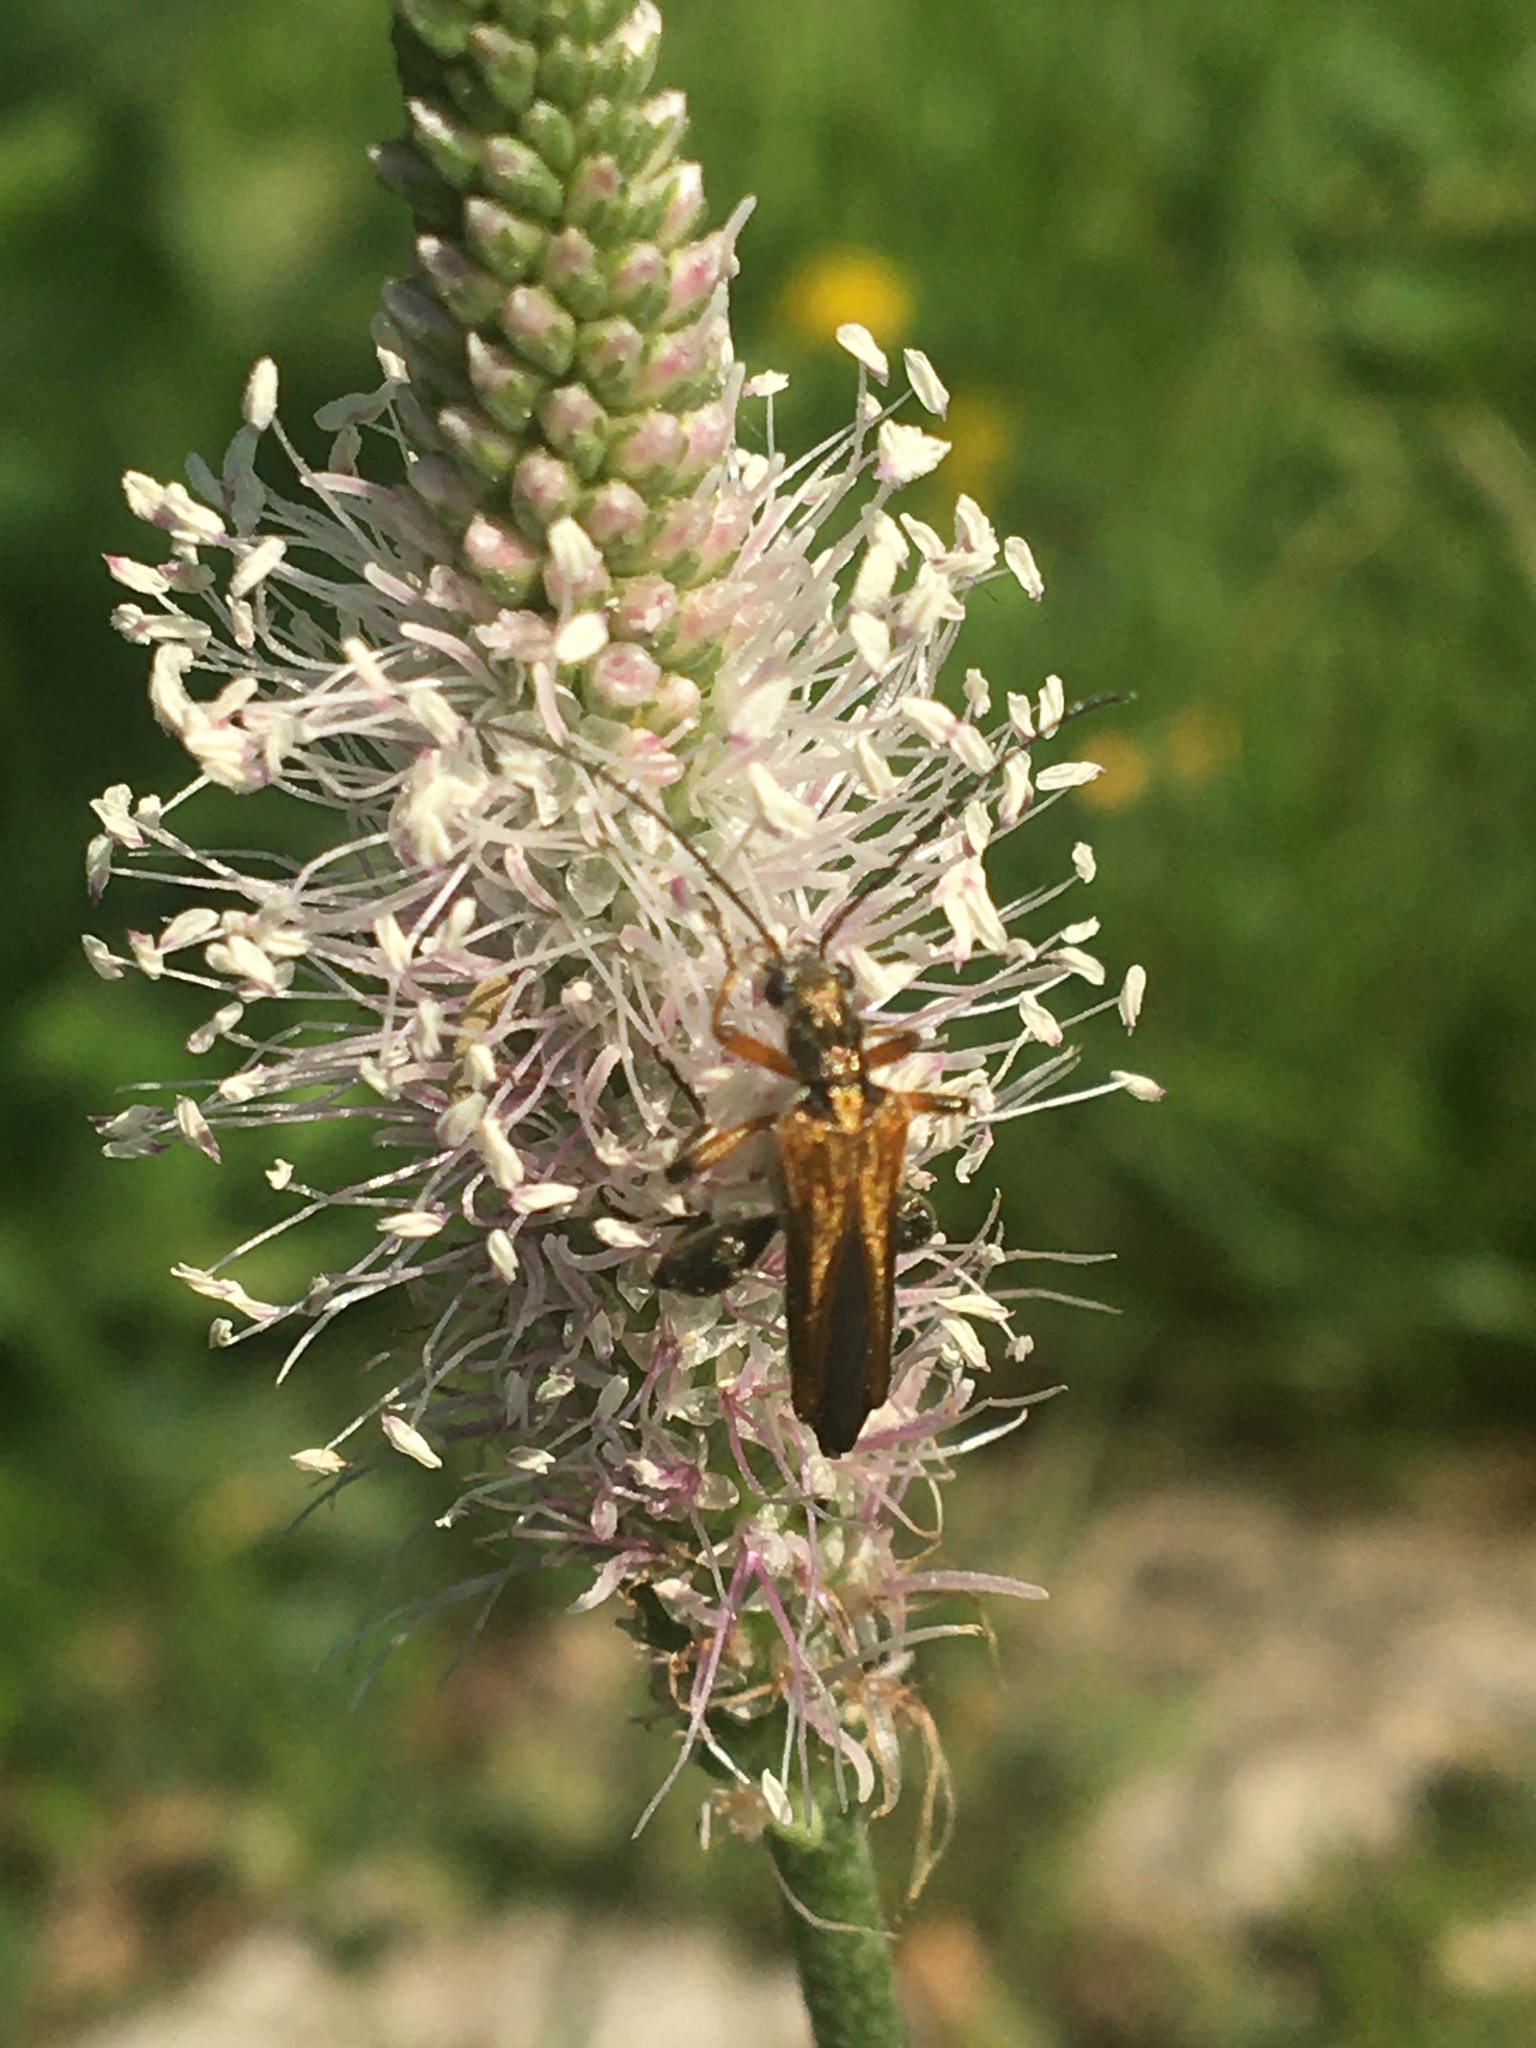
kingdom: Animalia
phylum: Arthropoda
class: Insecta
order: Coleoptera
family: Oedemeridae
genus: Oedemera
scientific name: Oedemera podagrariae
